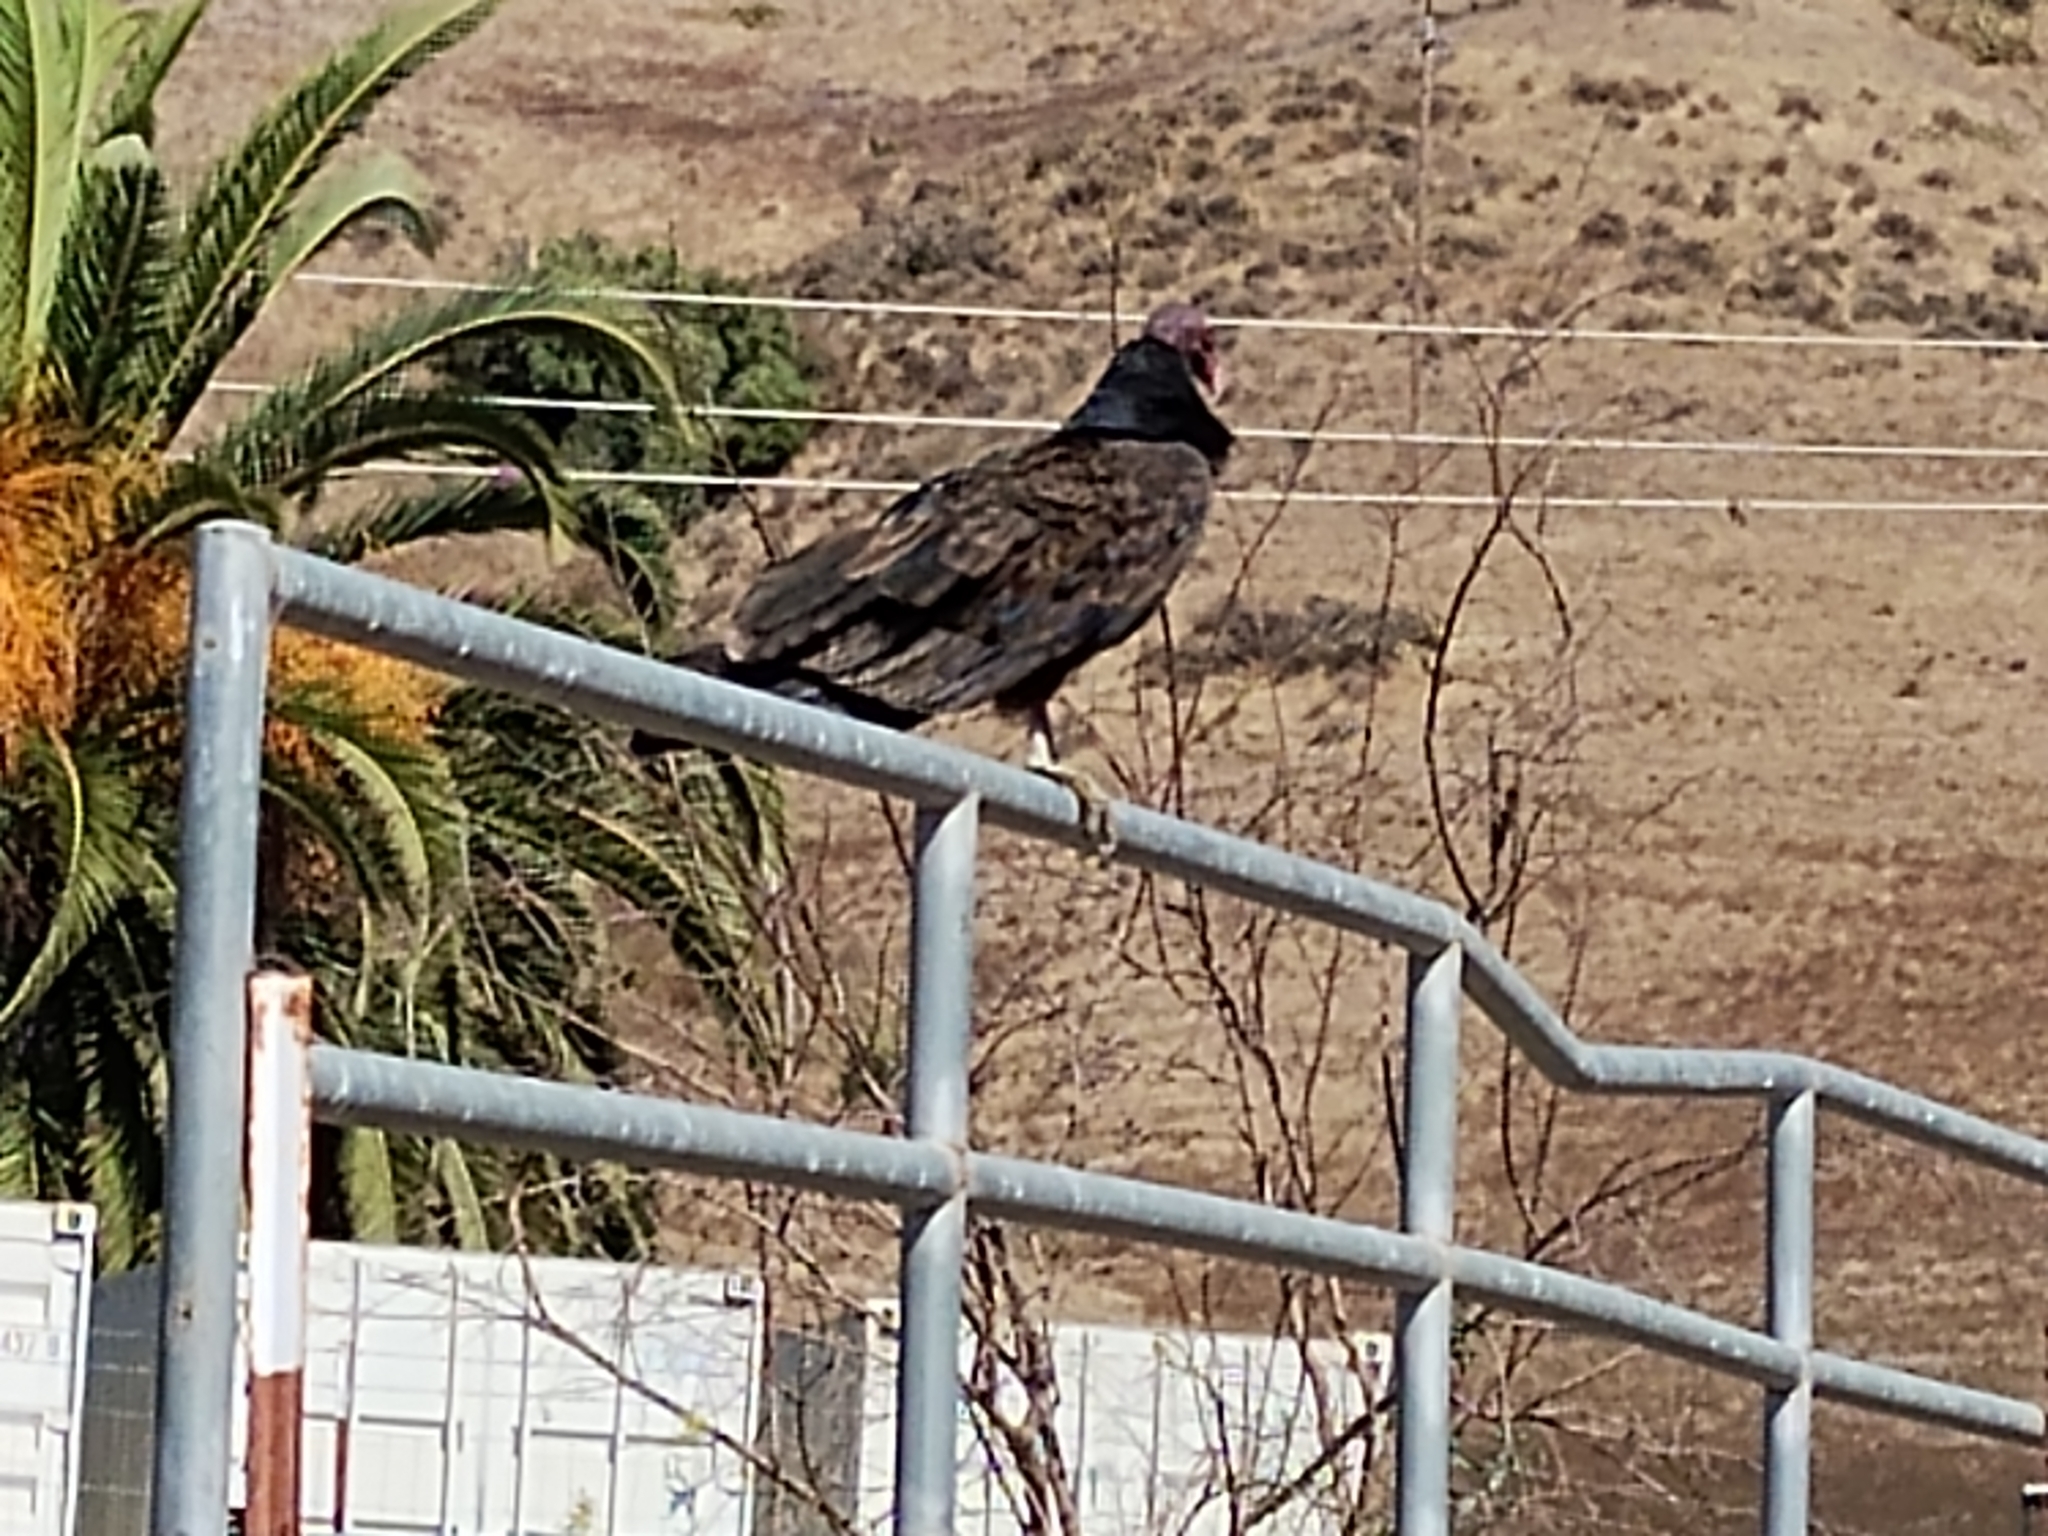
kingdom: Animalia
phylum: Chordata
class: Aves
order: Accipitriformes
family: Cathartidae
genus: Cathartes
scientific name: Cathartes aura
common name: Turkey vulture
